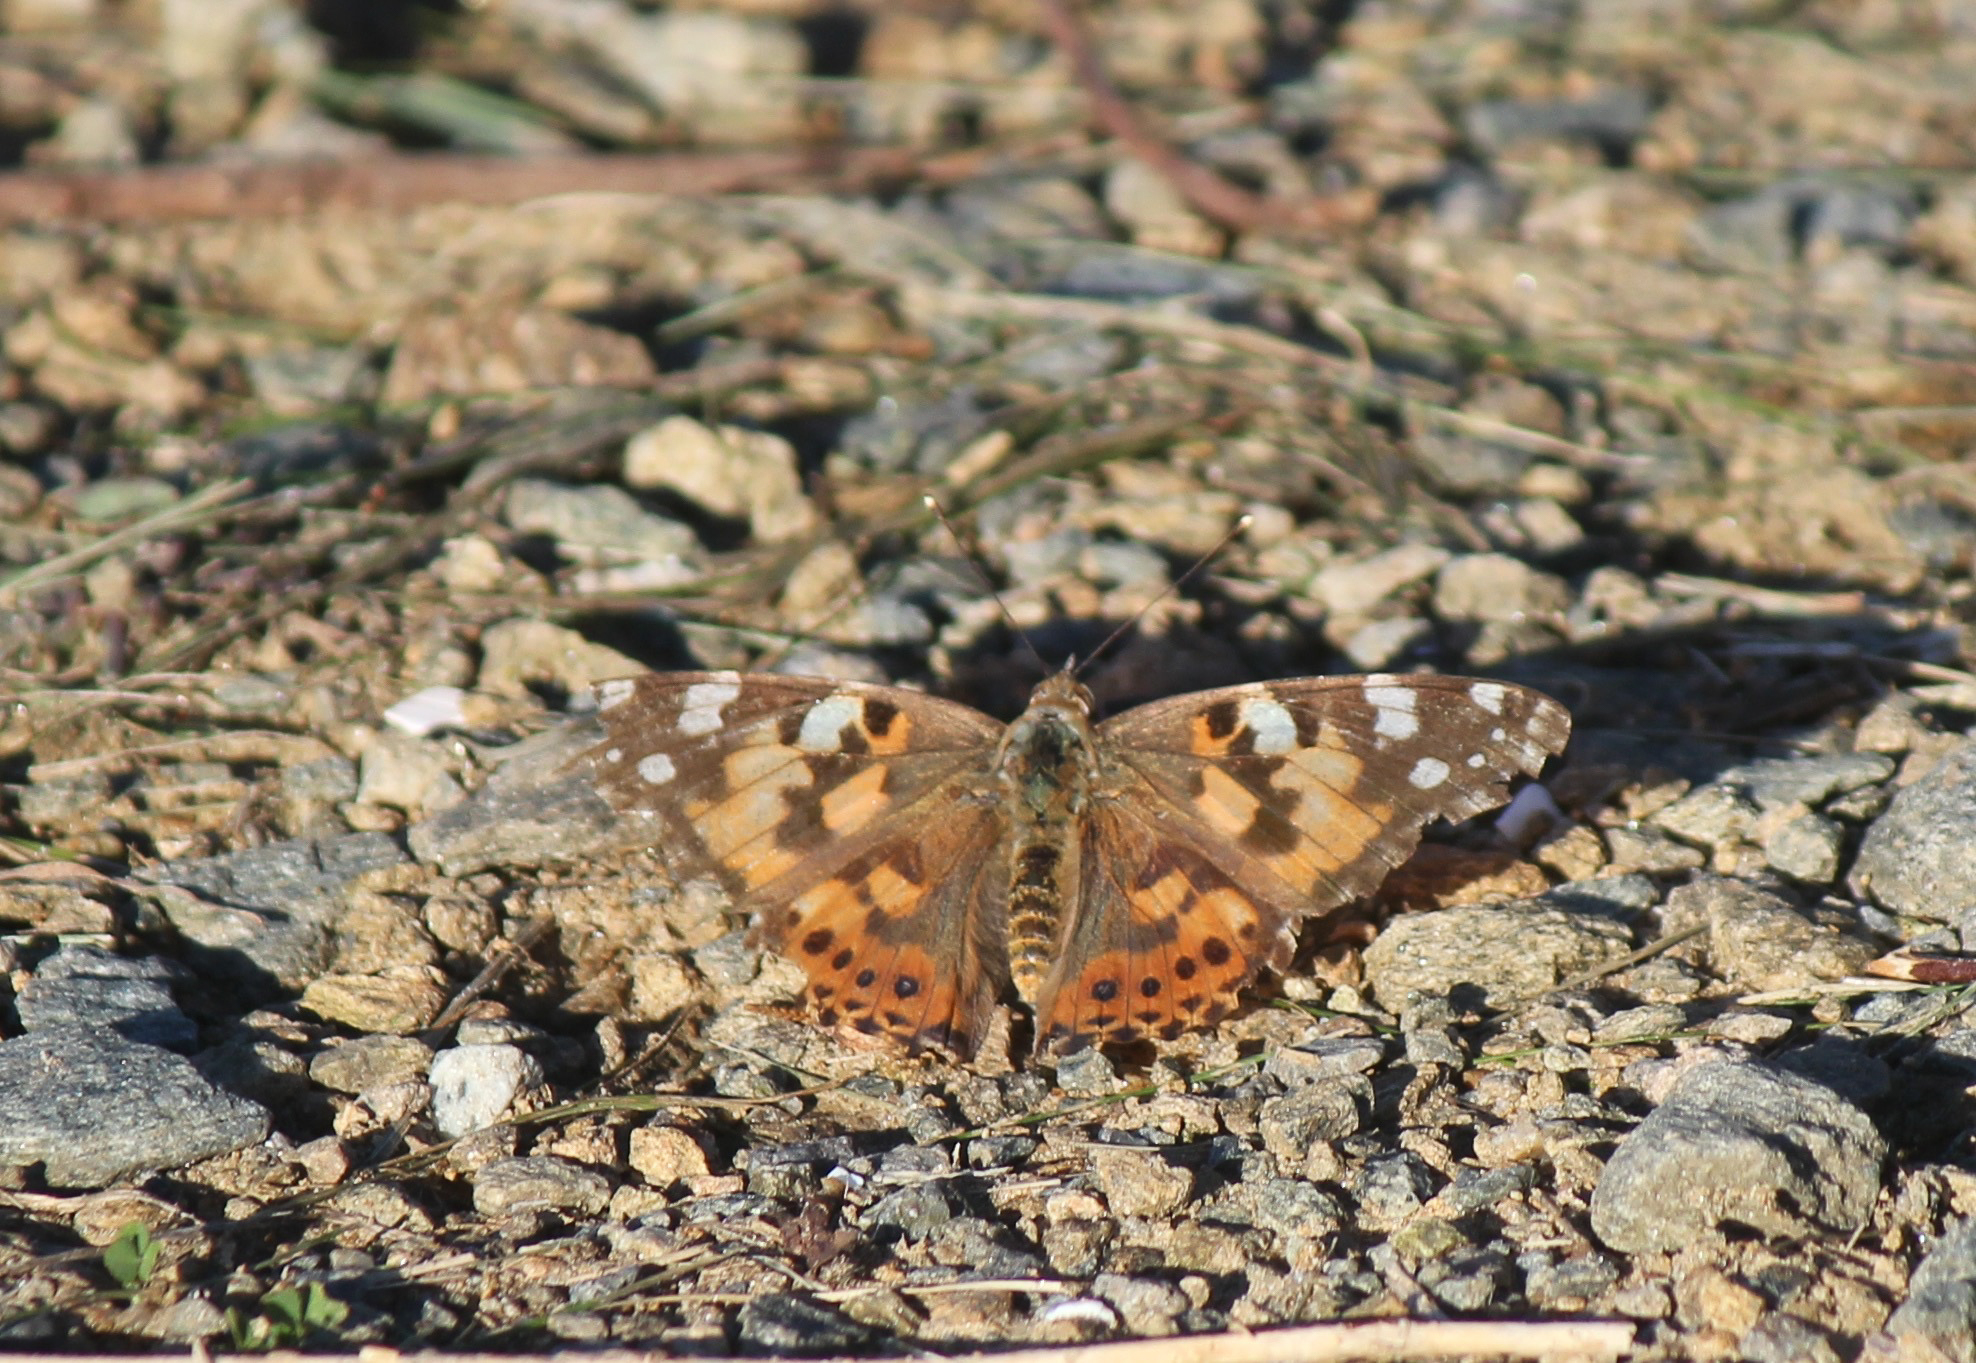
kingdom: Animalia
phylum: Arthropoda
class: Insecta
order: Lepidoptera
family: Nymphalidae
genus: Vanessa
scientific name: Vanessa cardui
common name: Painted lady
